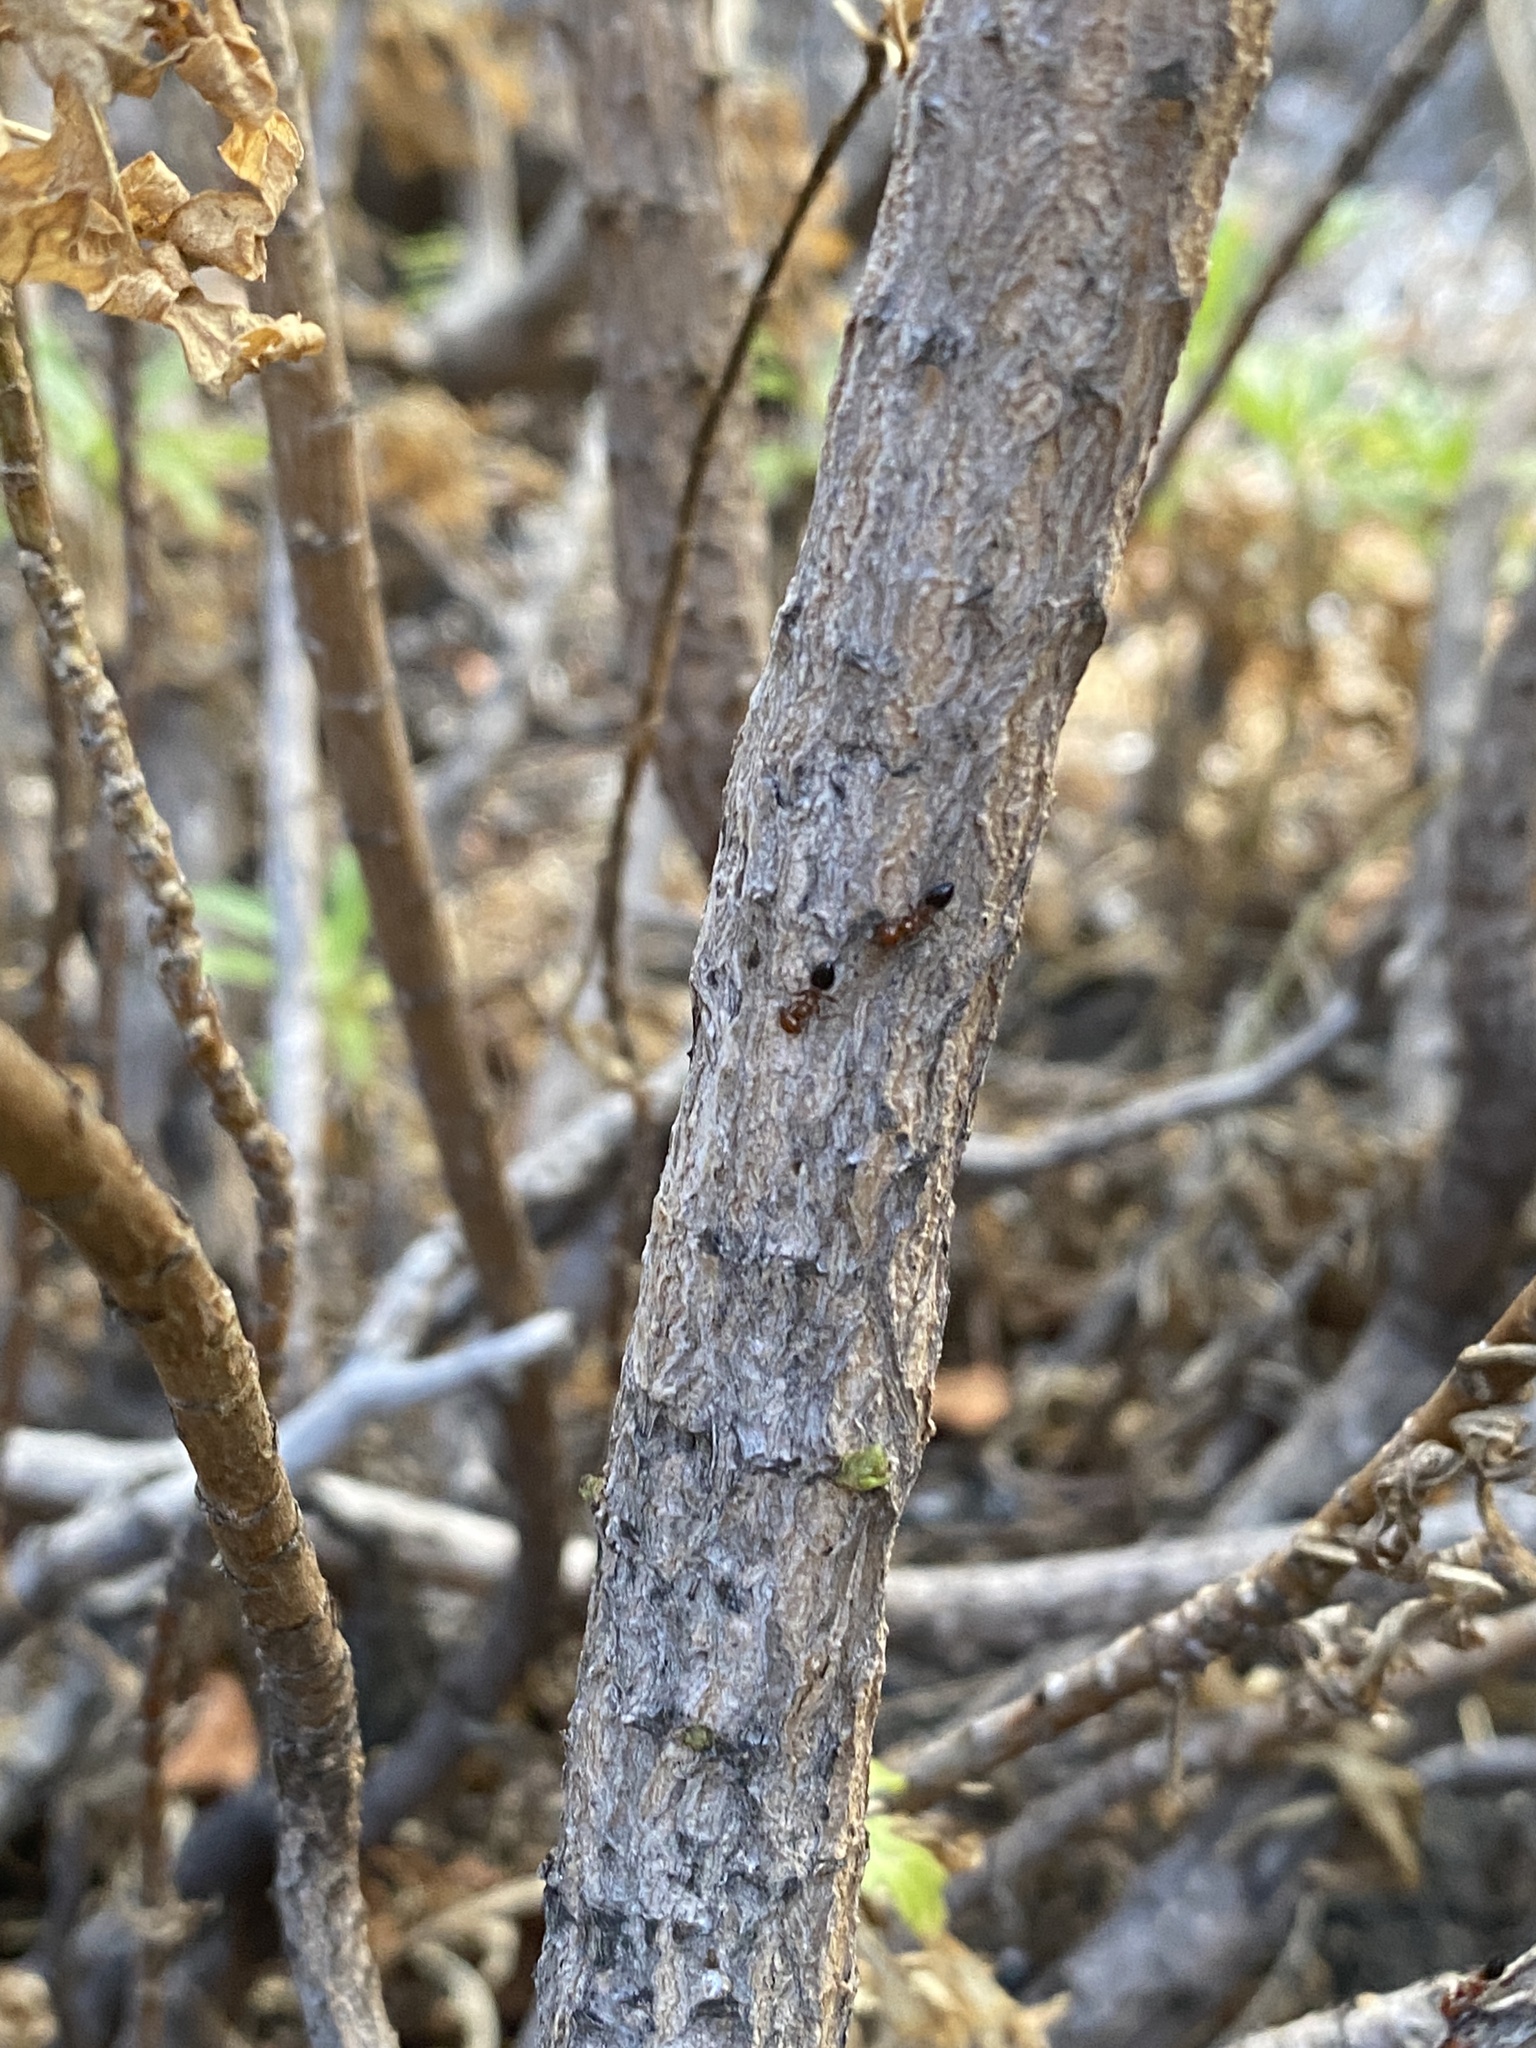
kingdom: Plantae
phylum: Tracheophyta
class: Magnoliopsida
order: Asterales
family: Asteraceae
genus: Cheirolophus
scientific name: Cheirolophus junonianus
